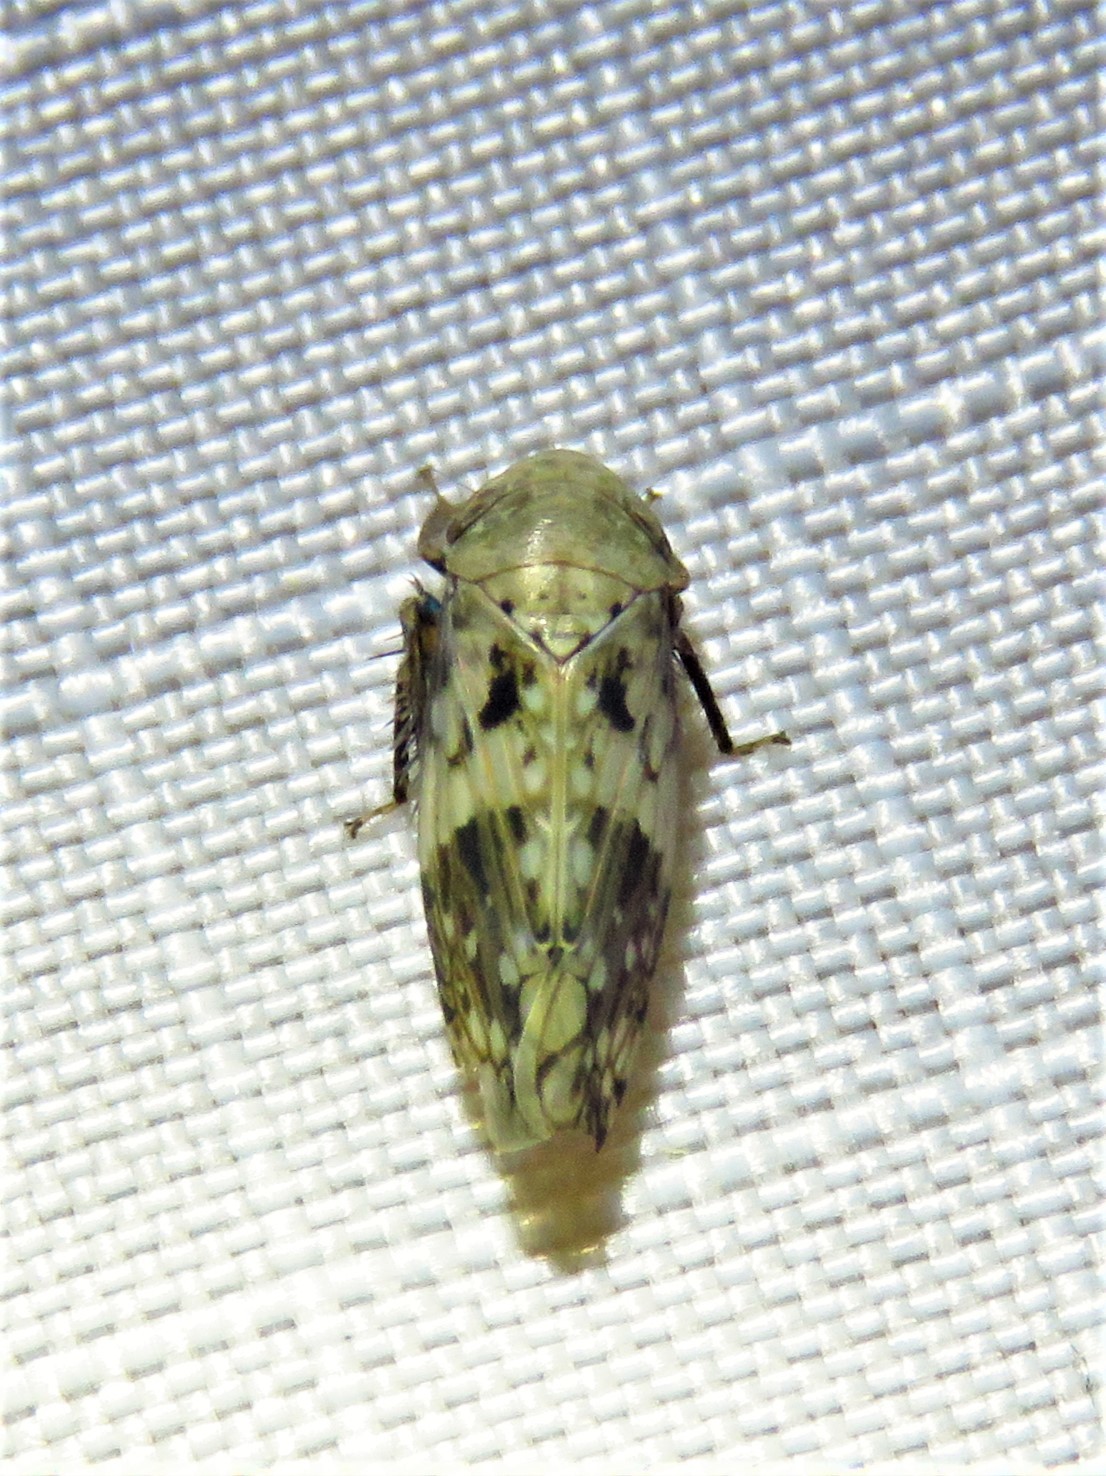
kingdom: Animalia
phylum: Arthropoda
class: Insecta
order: Hemiptera
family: Cicadellidae
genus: Menosoma
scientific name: Menosoma cinctum
